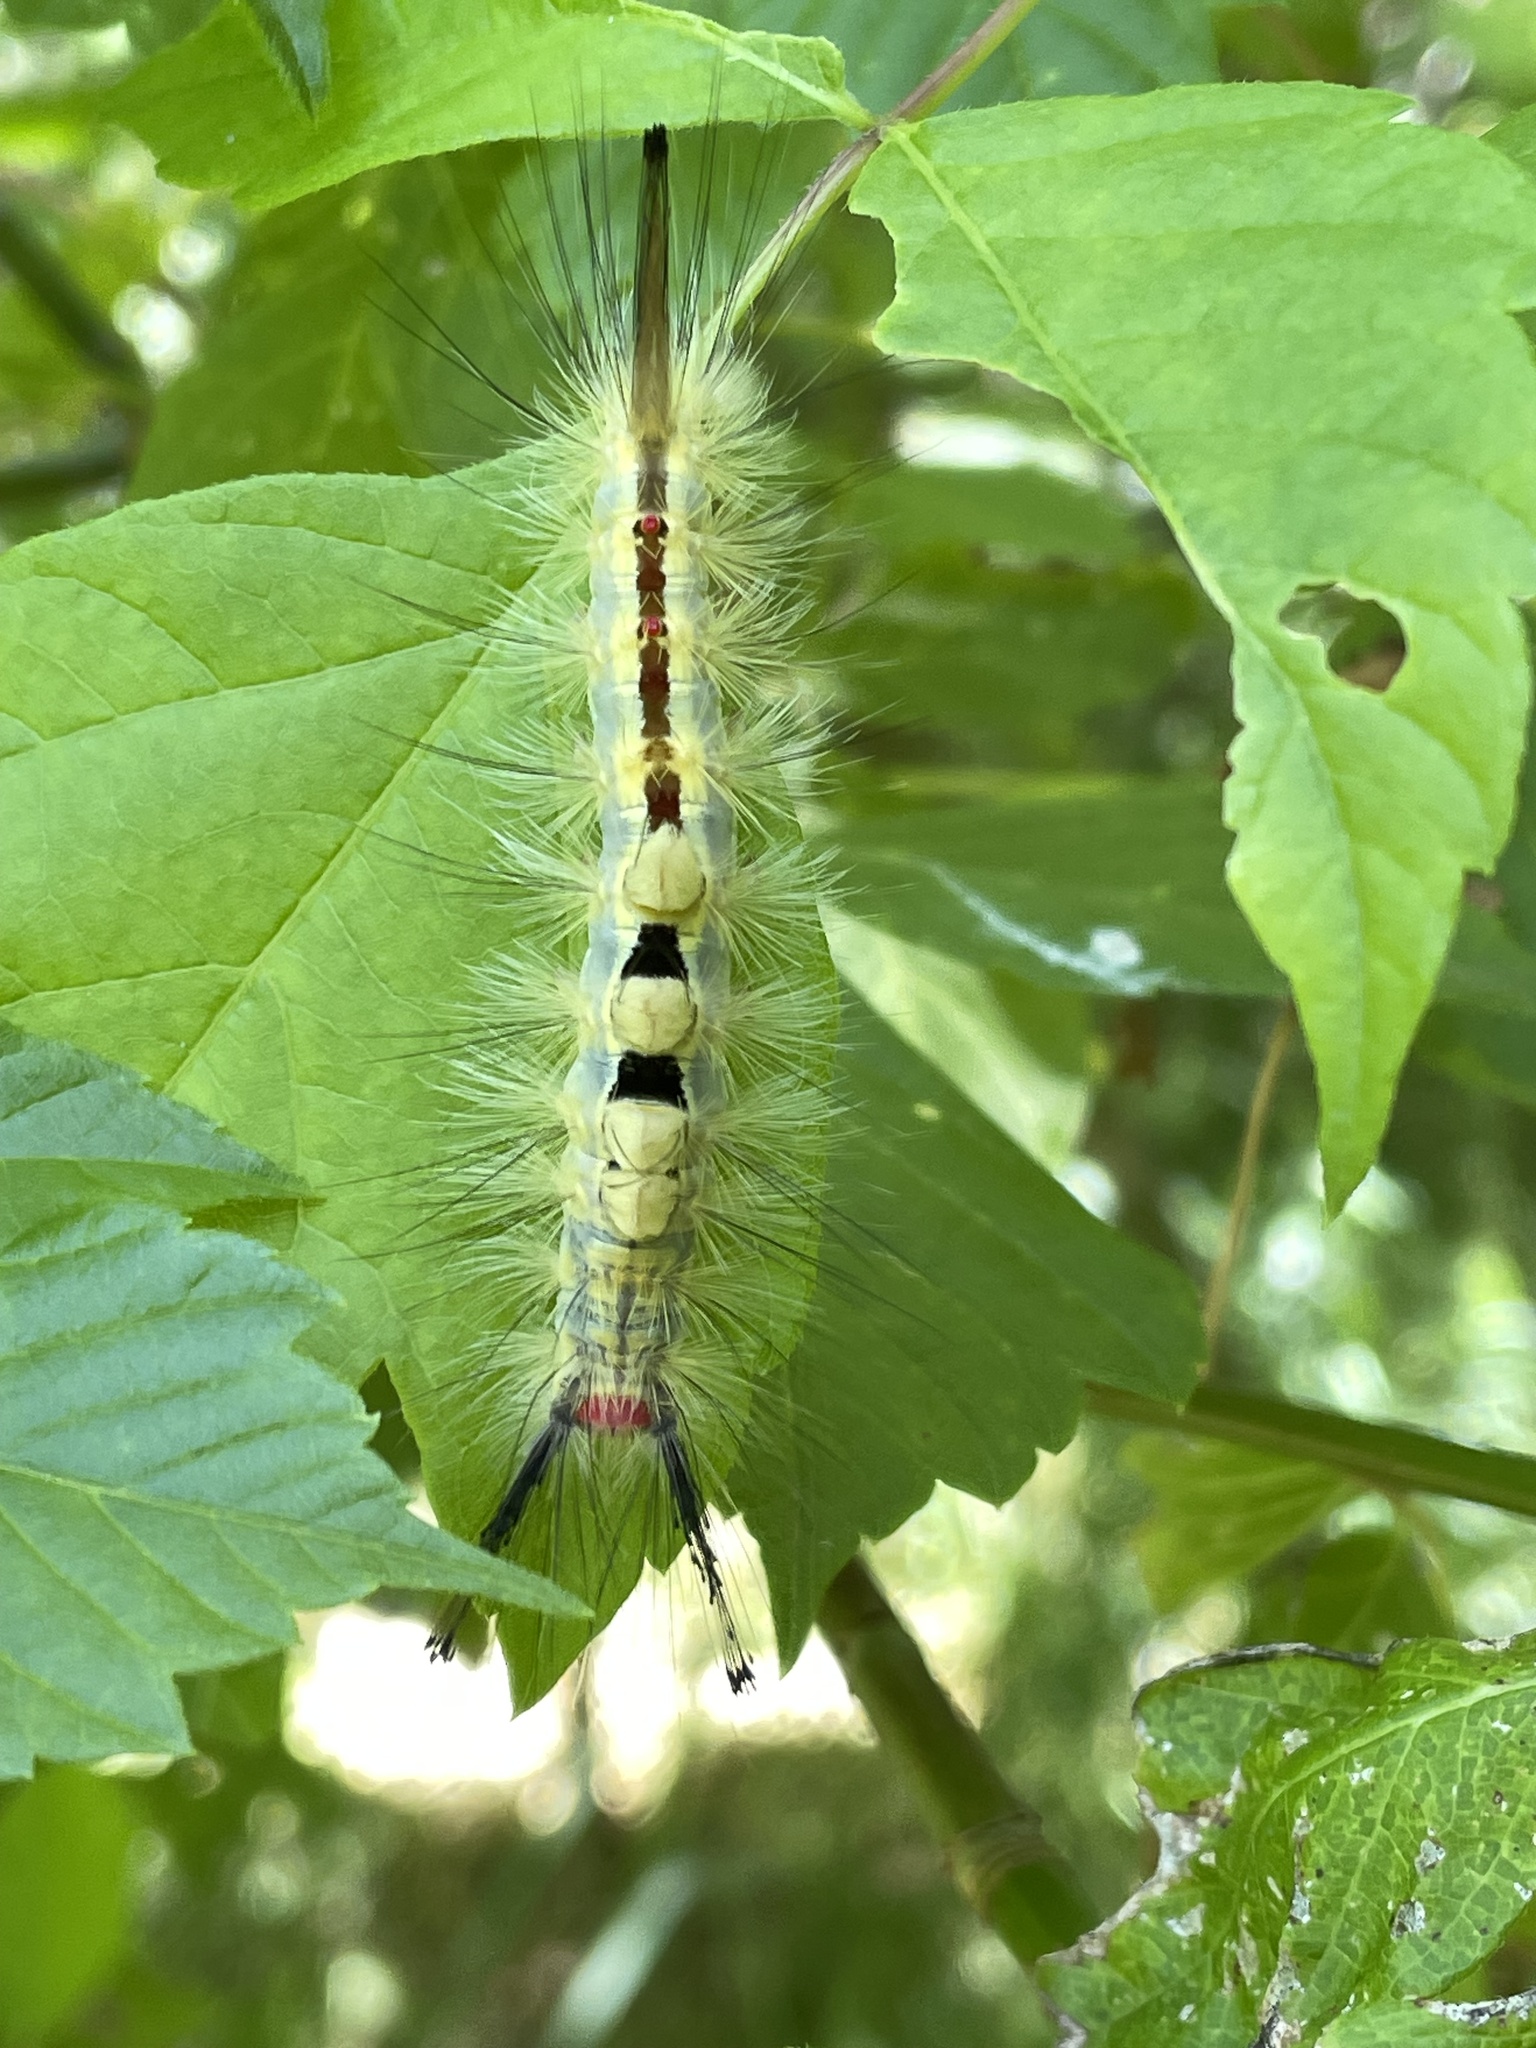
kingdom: Animalia
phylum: Arthropoda
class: Insecta
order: Lepidoptera
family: Erebidae
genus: Orgyia
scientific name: Orgyia leucostigma
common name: White-marked tussock moth
